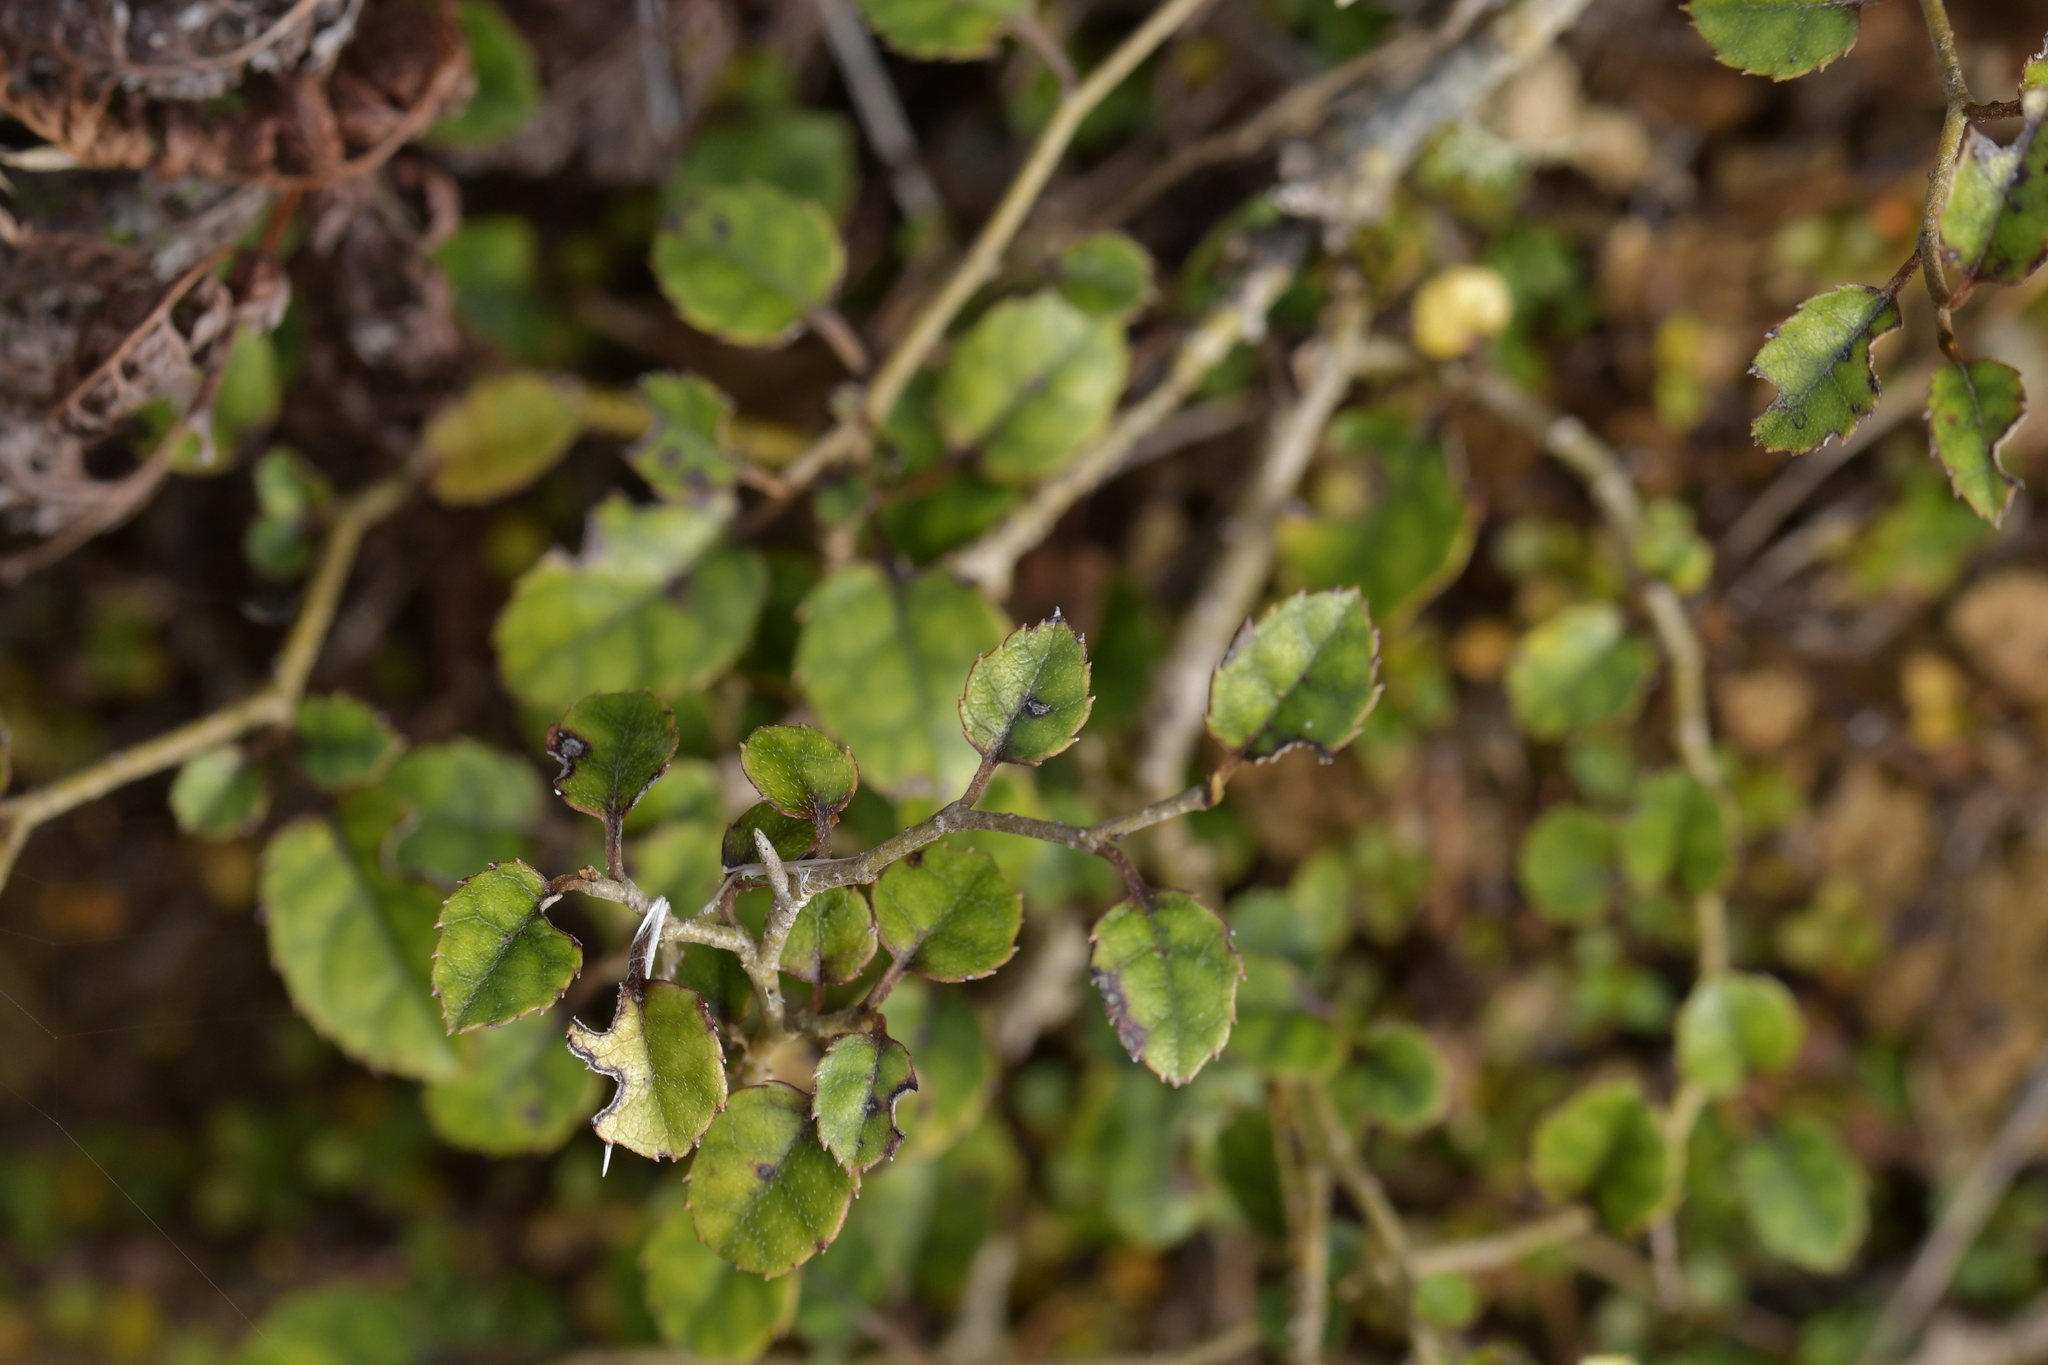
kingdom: Plantae
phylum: Tracheophyta
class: Magnoliopsida
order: Asterales
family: Rousseaceae
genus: Carpodetus
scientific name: Carpodetus serratus
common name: White mapau
